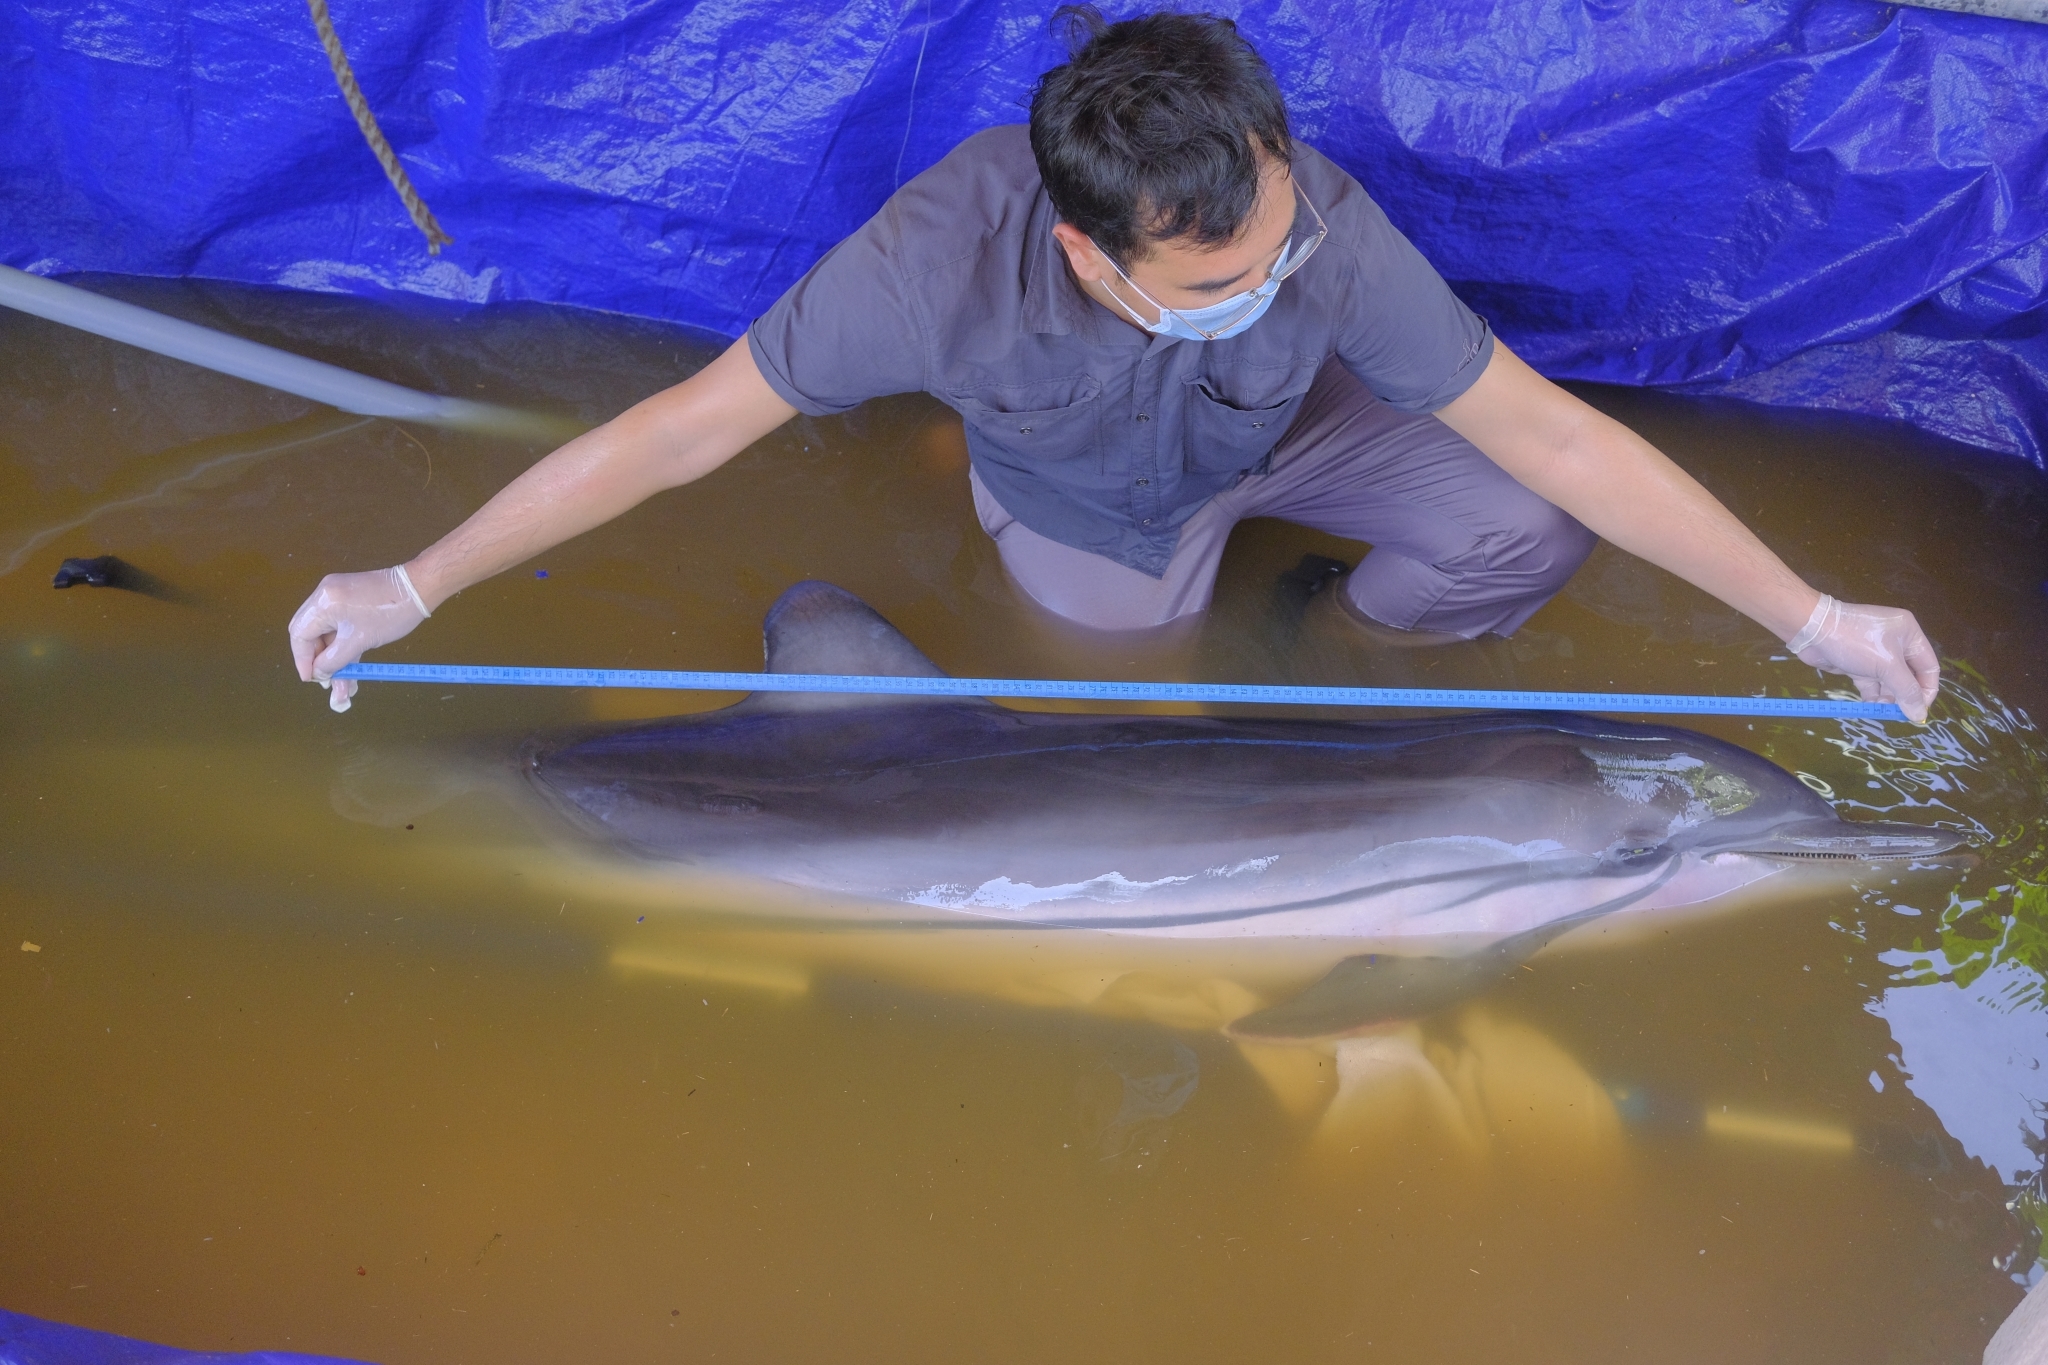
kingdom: Animalia
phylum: Chordata
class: Mammalia
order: Cetacea
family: Delphinidae
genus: Stenella
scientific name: Stenella coeruleoalba
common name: Striped dolphin
